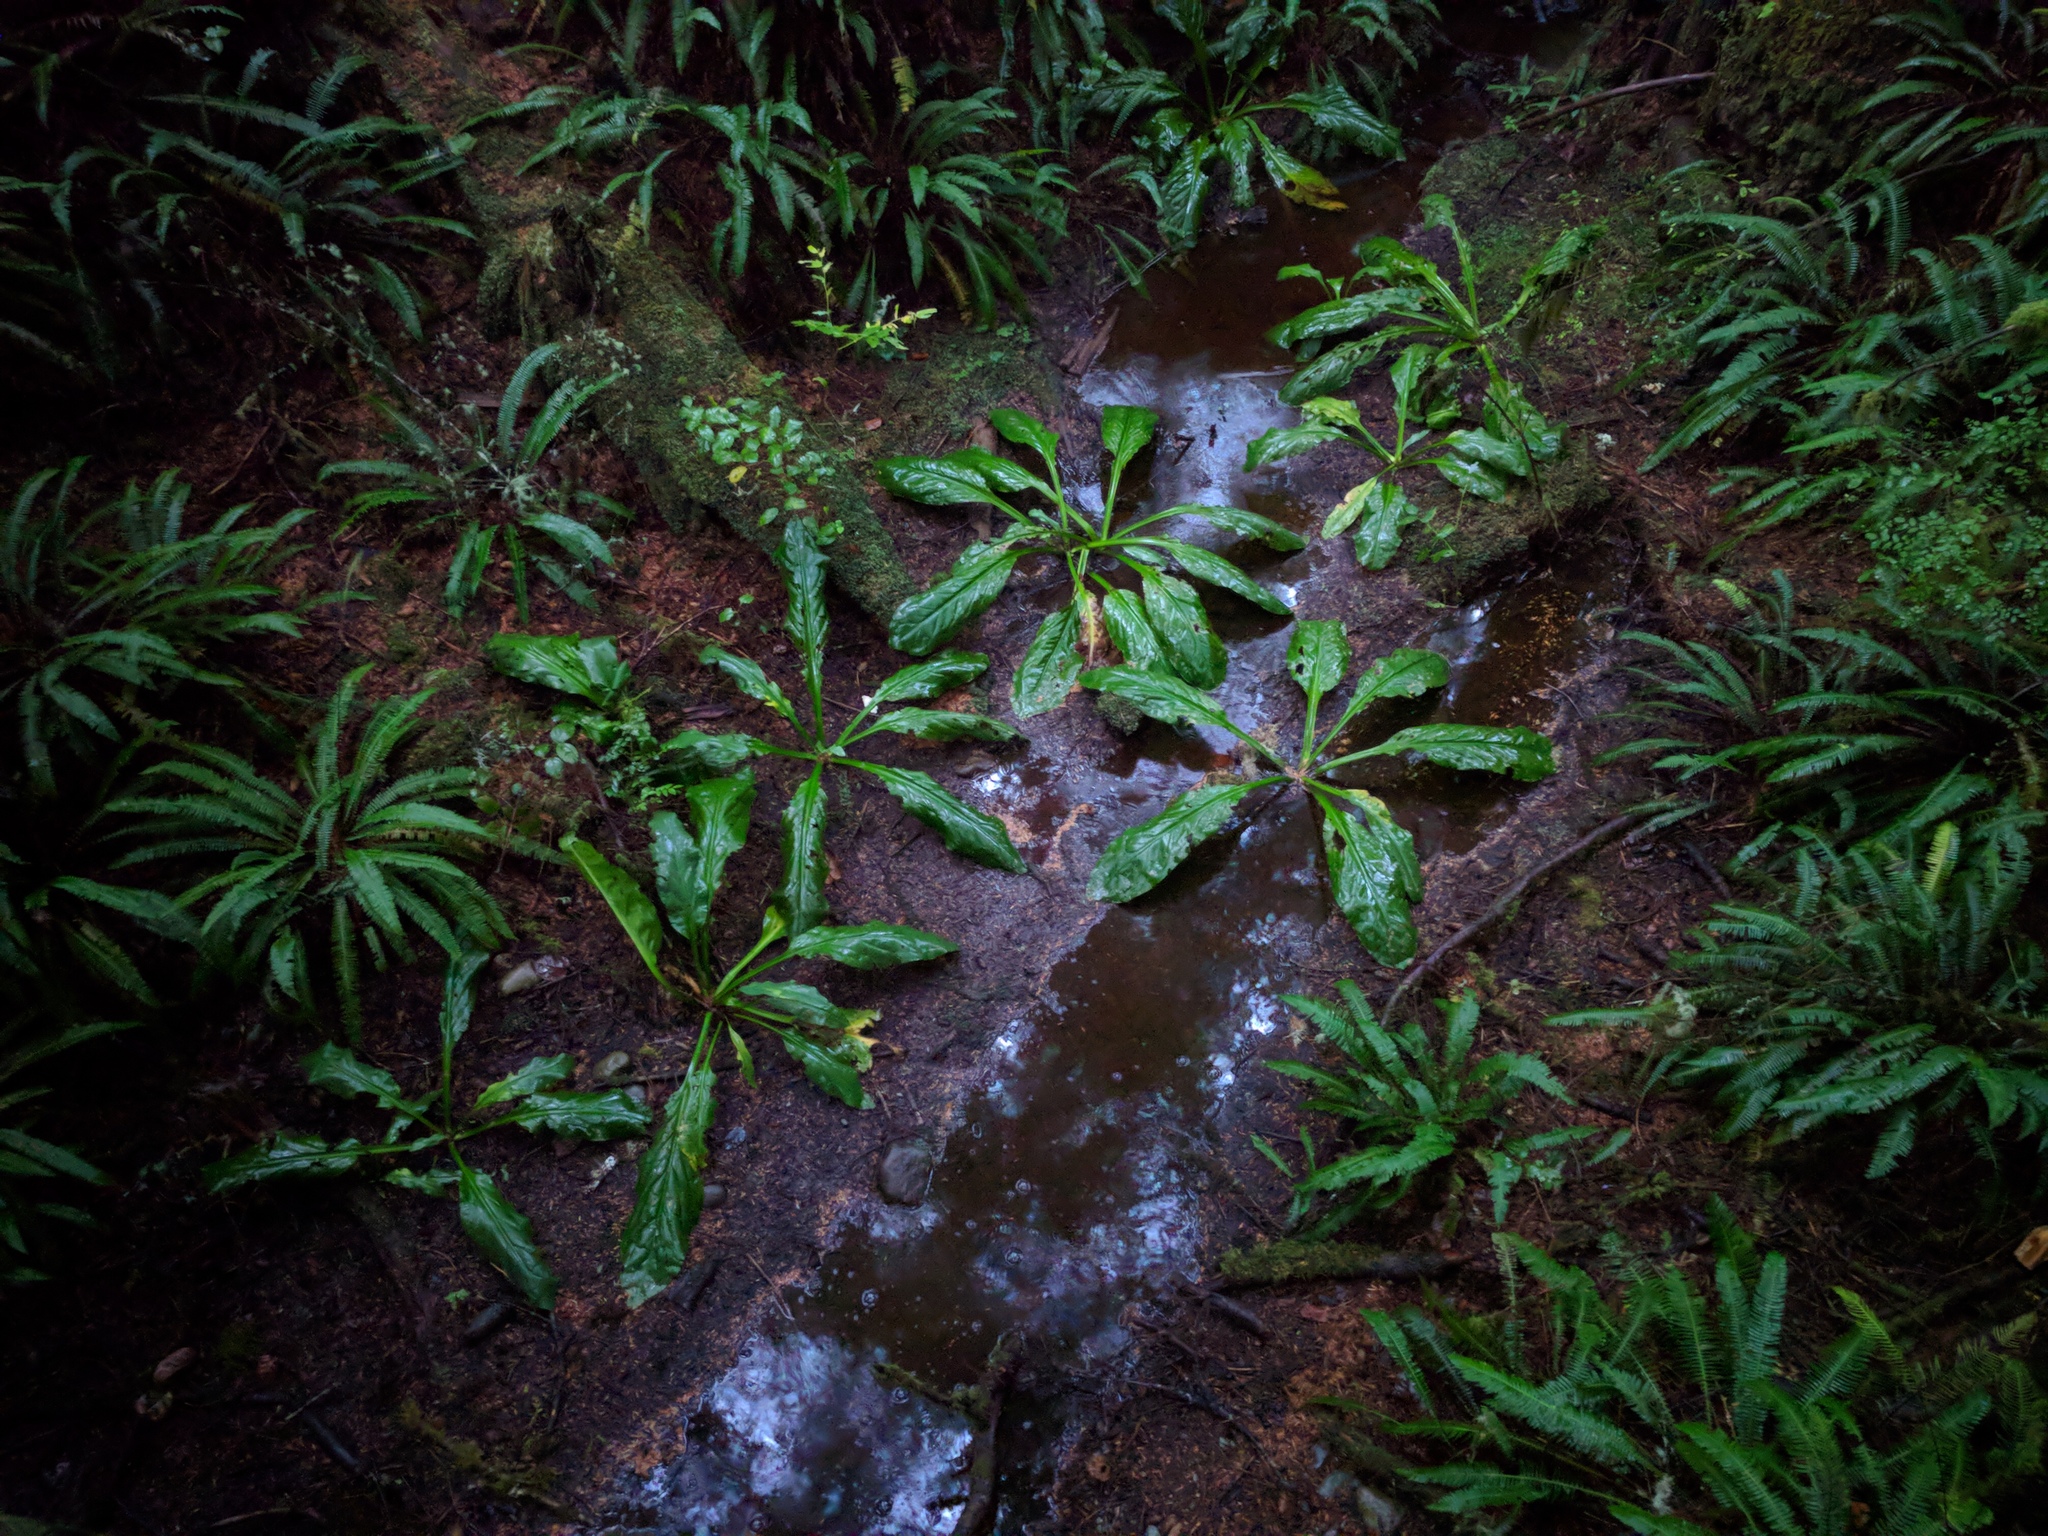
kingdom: Plantae
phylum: Tracheophyta
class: Liliopsida
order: Alismatales
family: Araceae
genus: Lysichiton
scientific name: Lysichiton americanus
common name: American skunk cabbage
